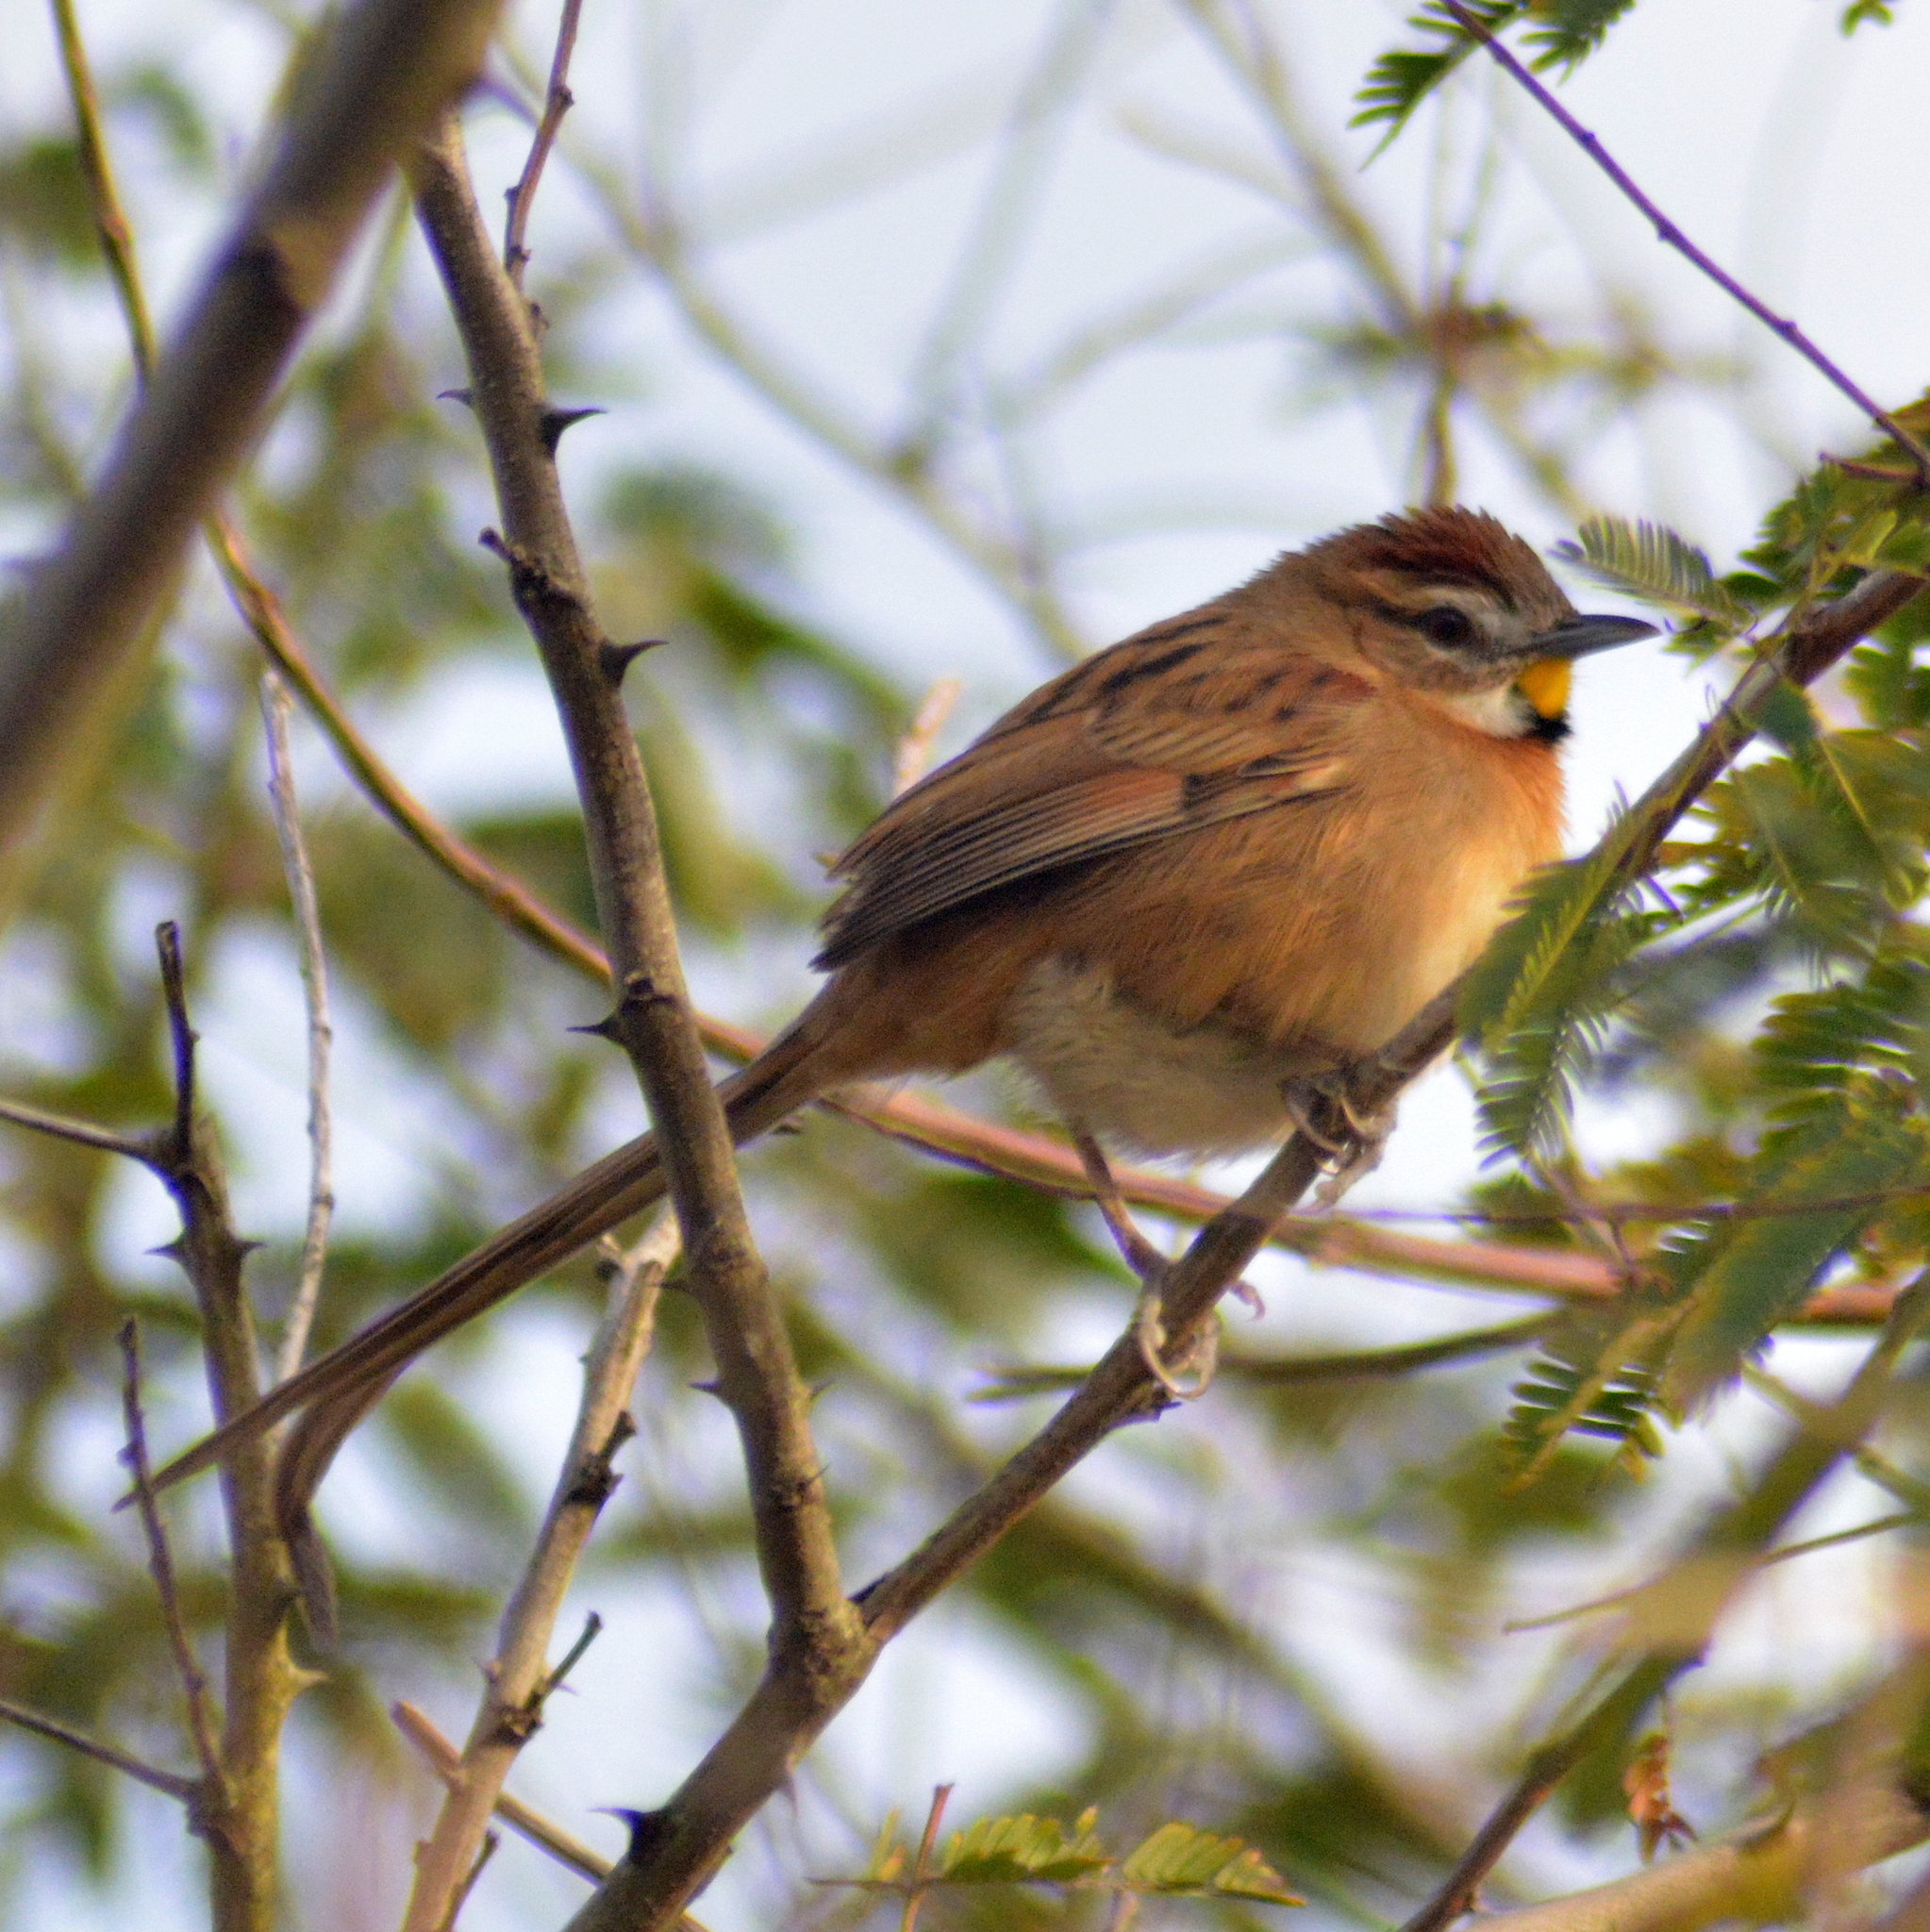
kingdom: Animalia
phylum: Chordata
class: Aves
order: Passeriformes
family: Furnariidae
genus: Schoeniophylax
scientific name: Schoeniophylax phryganophilus
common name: Chotoy spinetail
